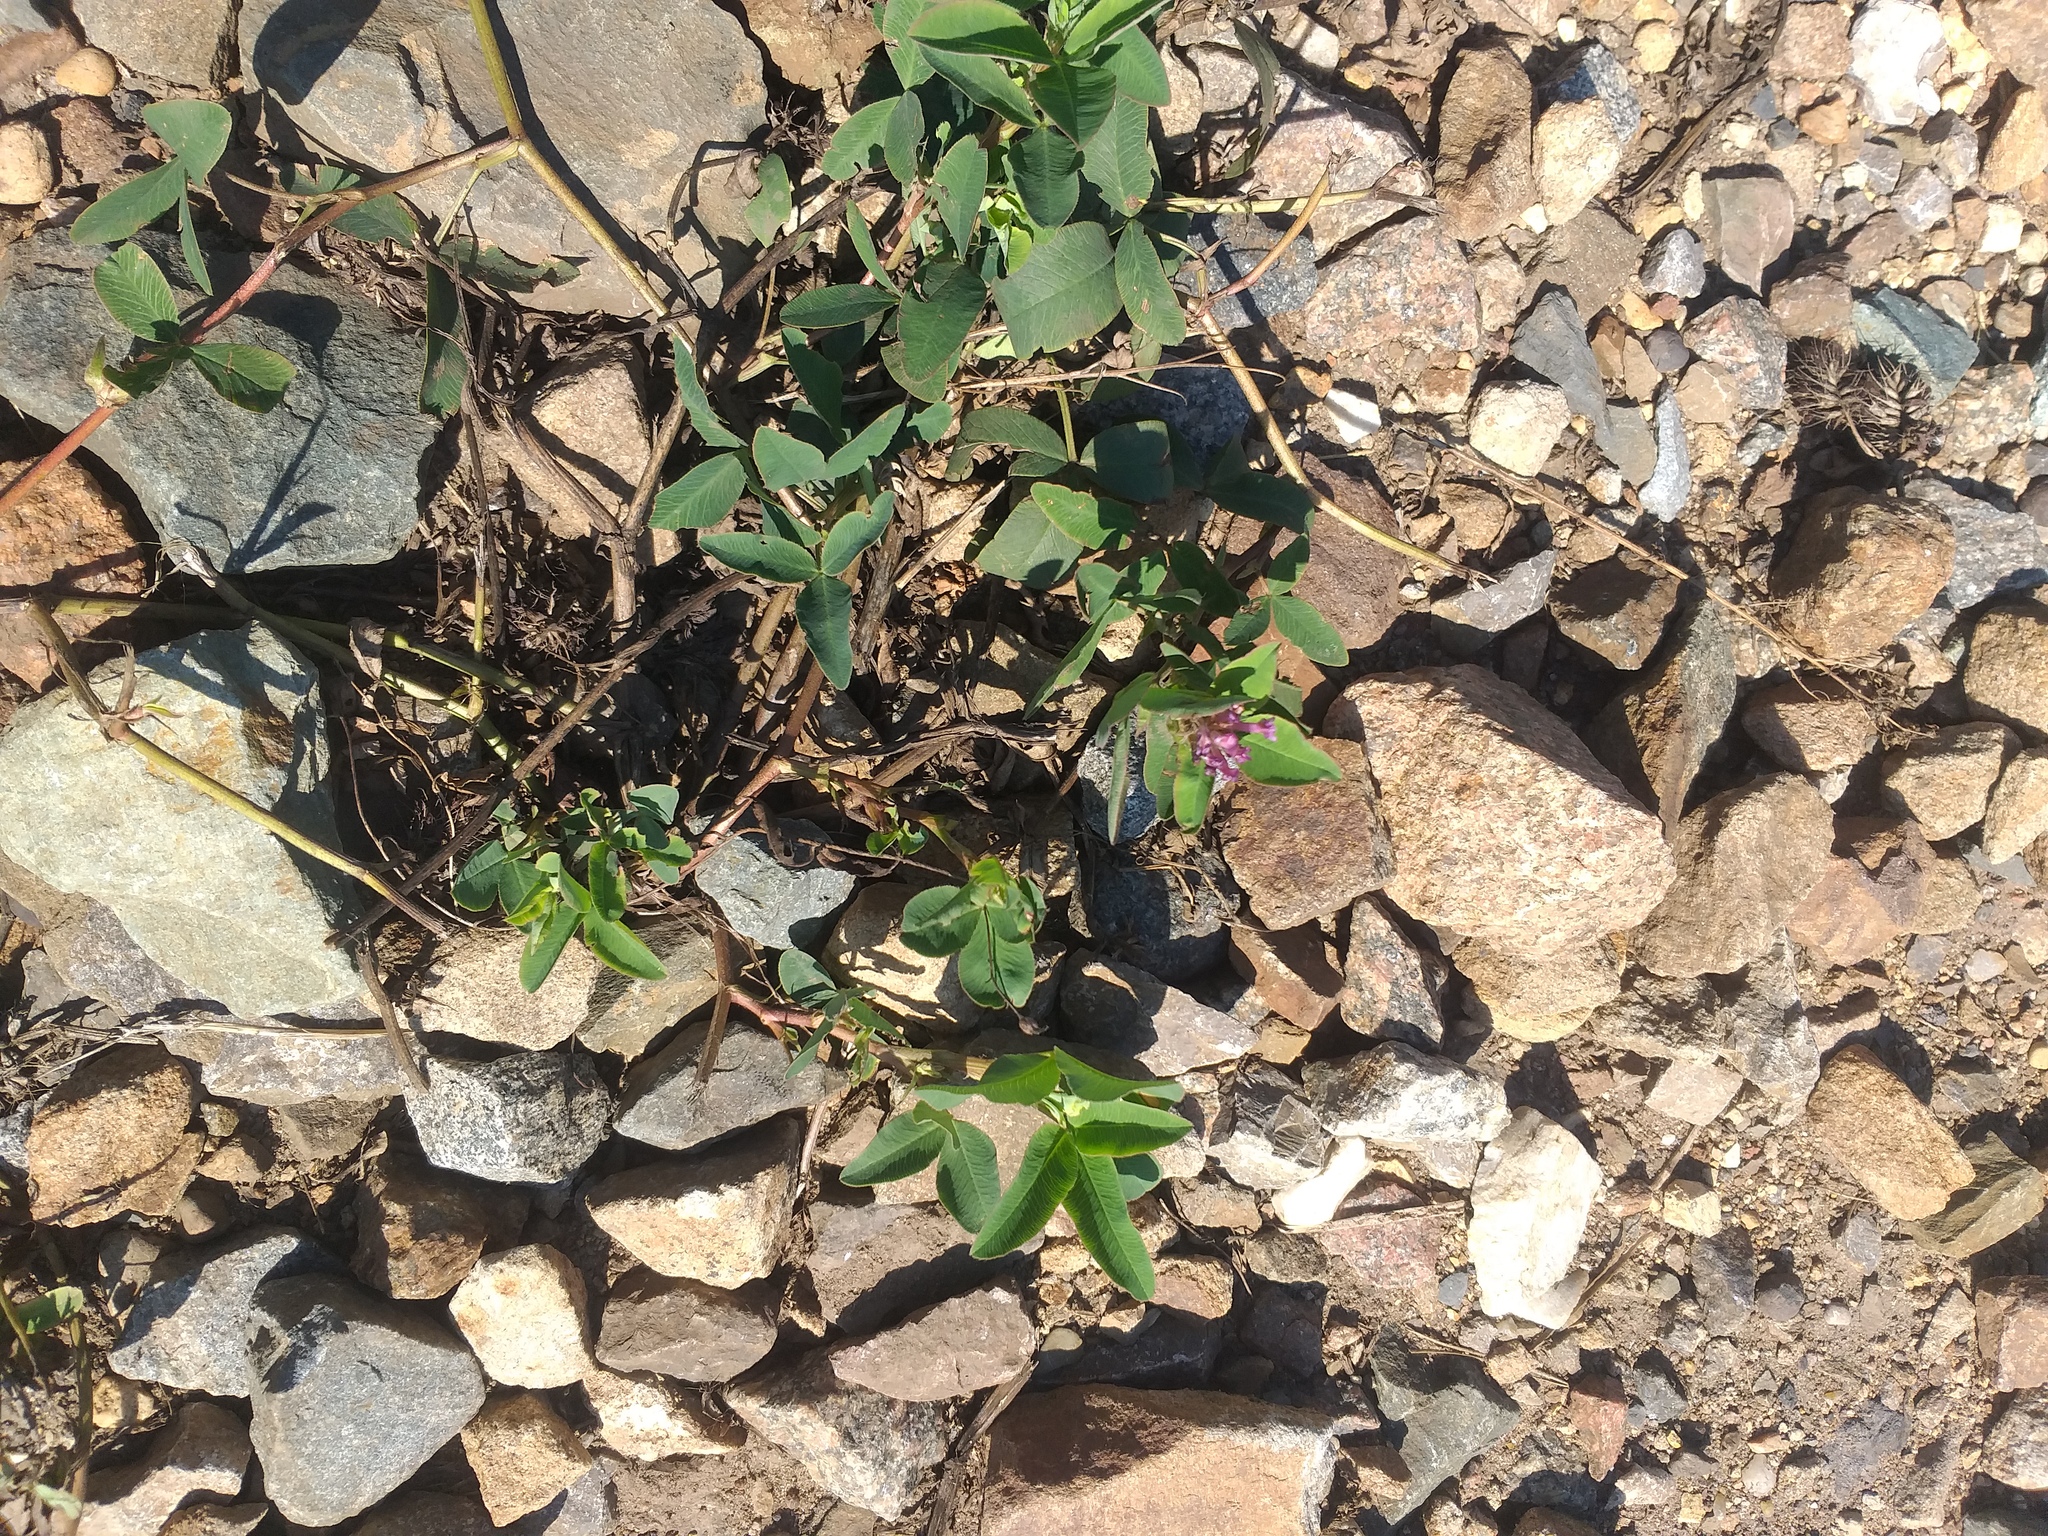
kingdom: Plantae
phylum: Tracheophyta
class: Magnoliopsida
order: Fabales
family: Fabaceae
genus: Trifolium
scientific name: Trifolium medium
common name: Zigzag clover
